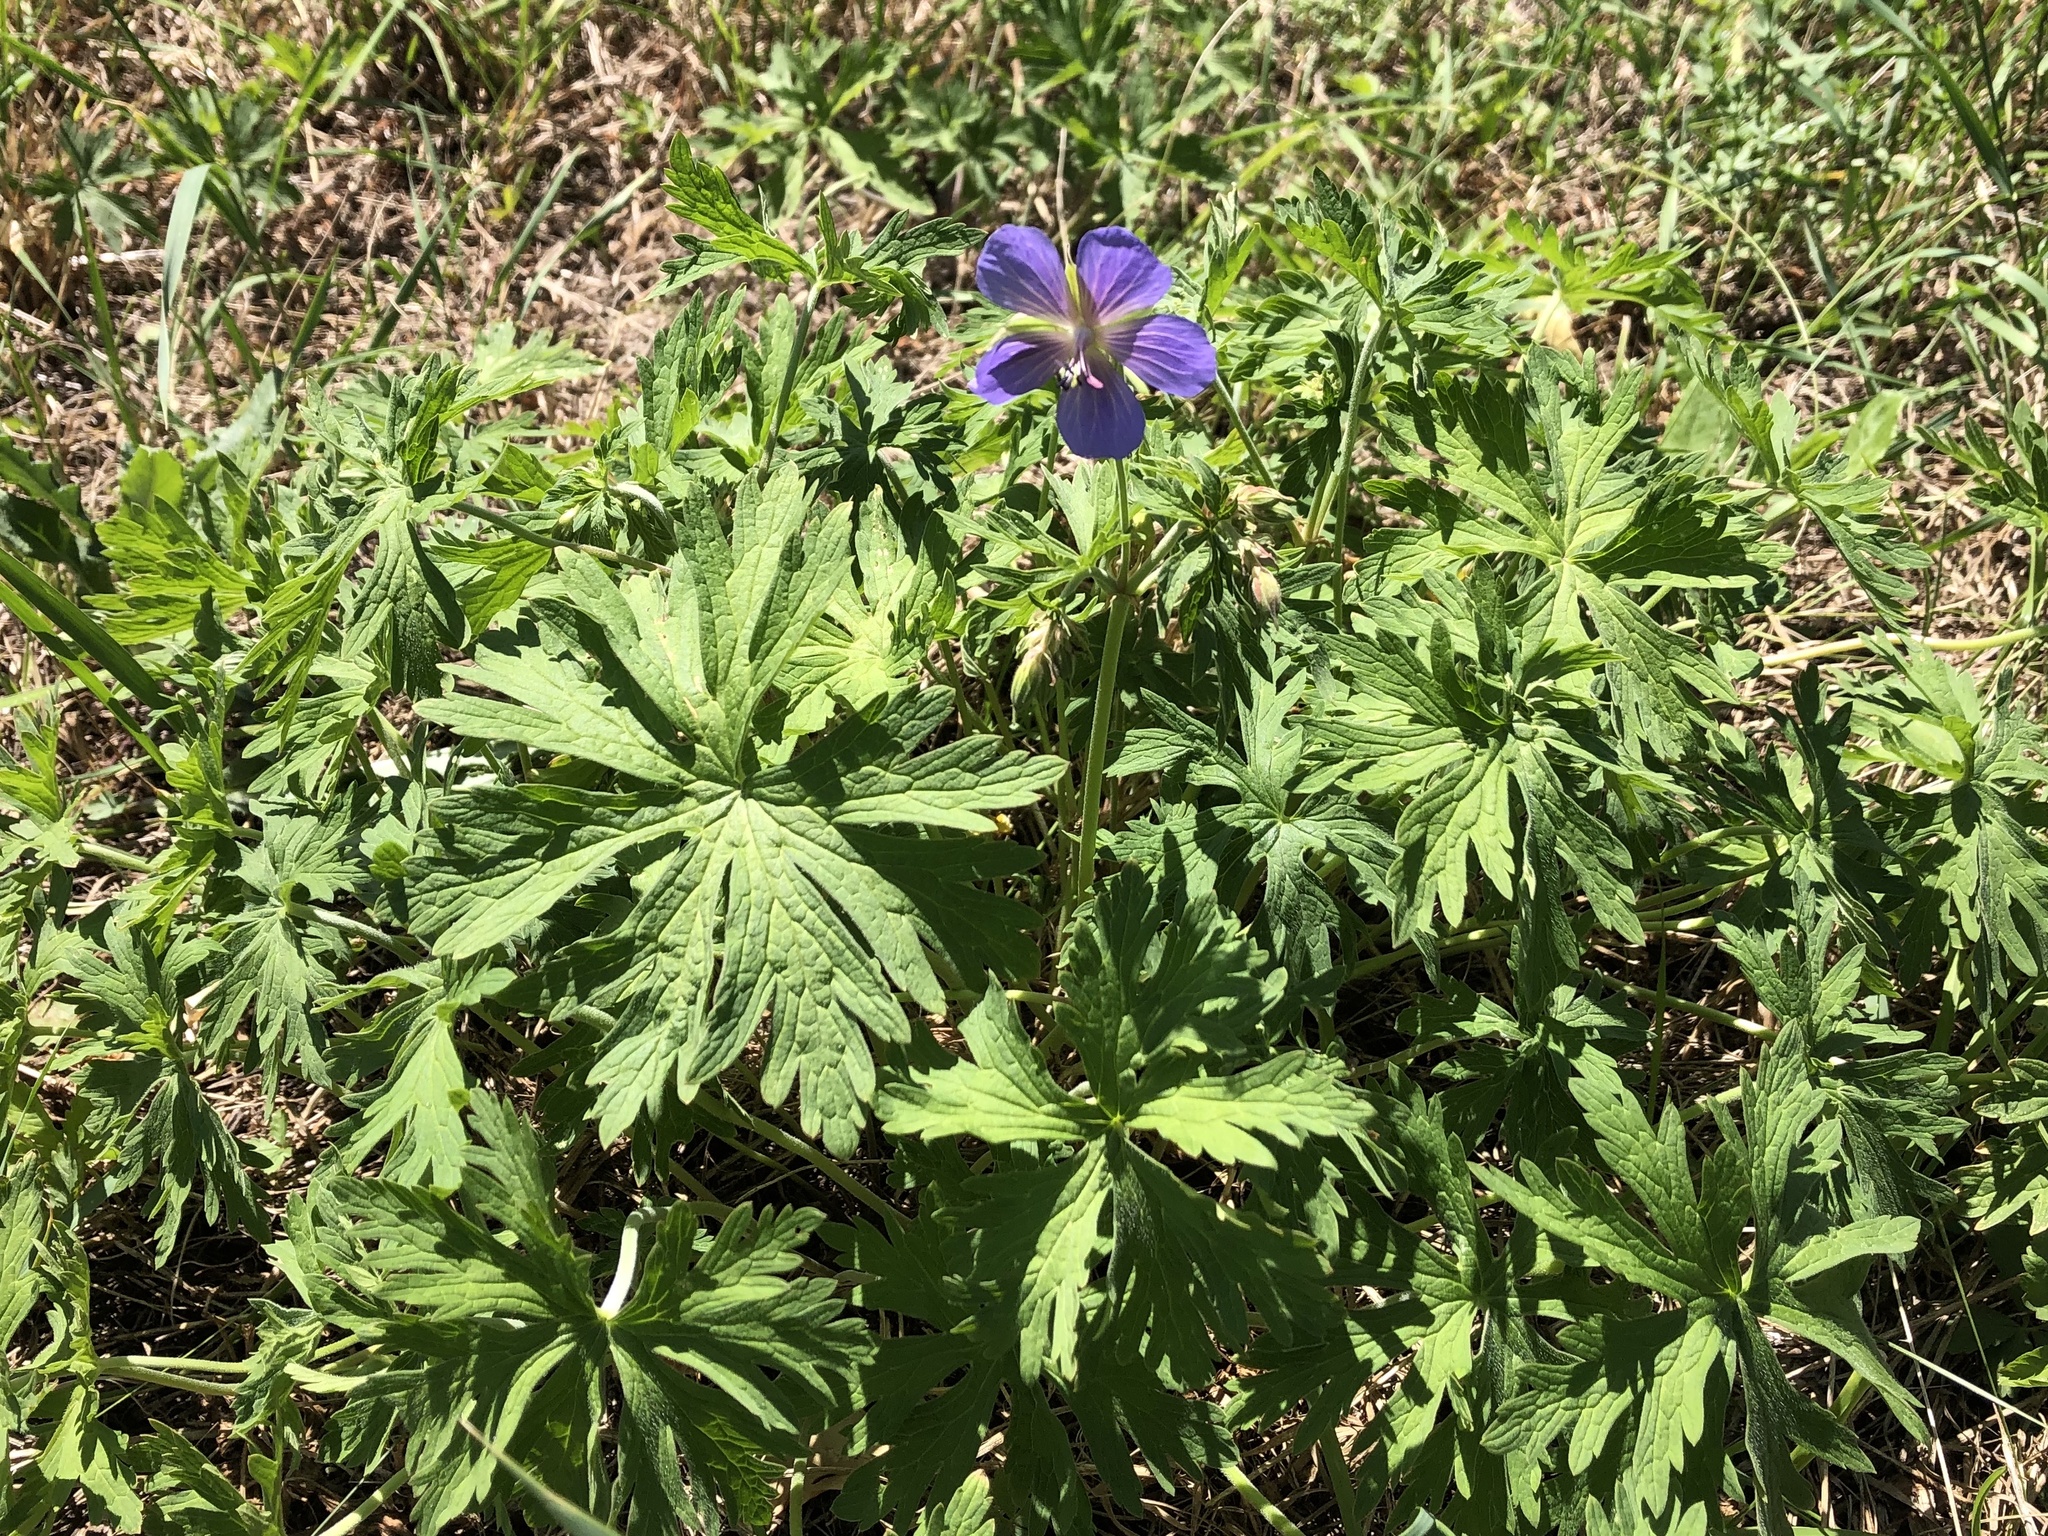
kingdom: Plantae
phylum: Tracheophyta
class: Magnoliopsida
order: Geraniales
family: Geraniaceae
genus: Geranium
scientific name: Geranium pratense
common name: Meadow crane's-bill
